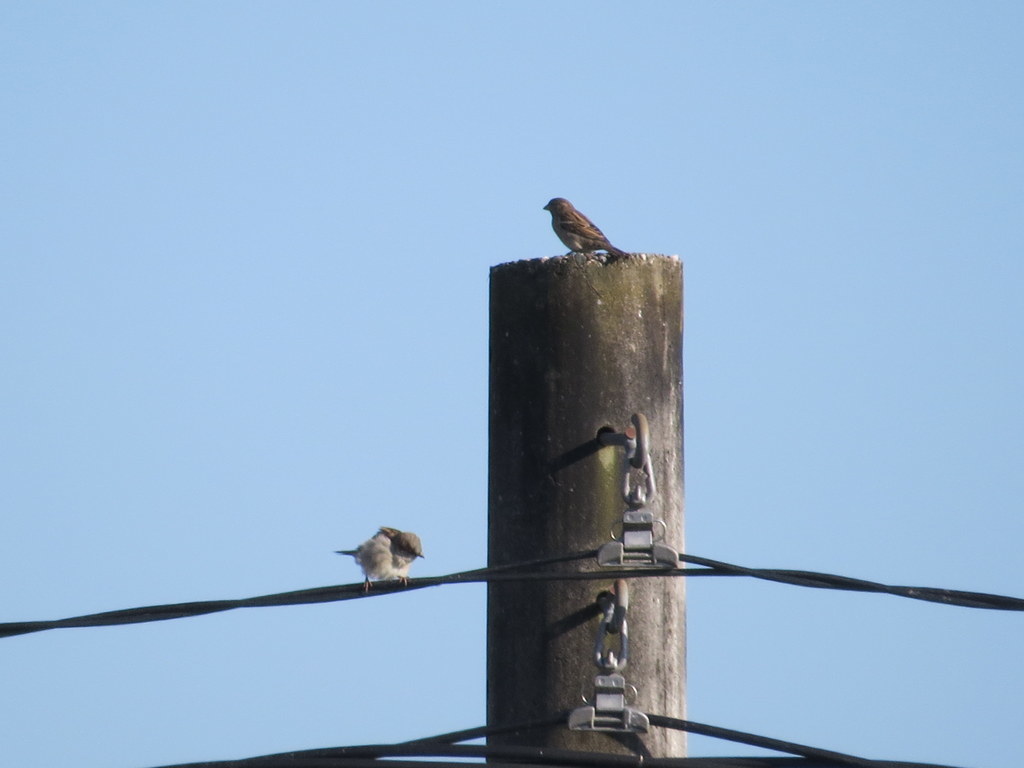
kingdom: Animalia
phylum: Chordata
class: Aves
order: Passeriformes
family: Passeridae
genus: Passer
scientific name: Passer domesticus
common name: House sparrow
